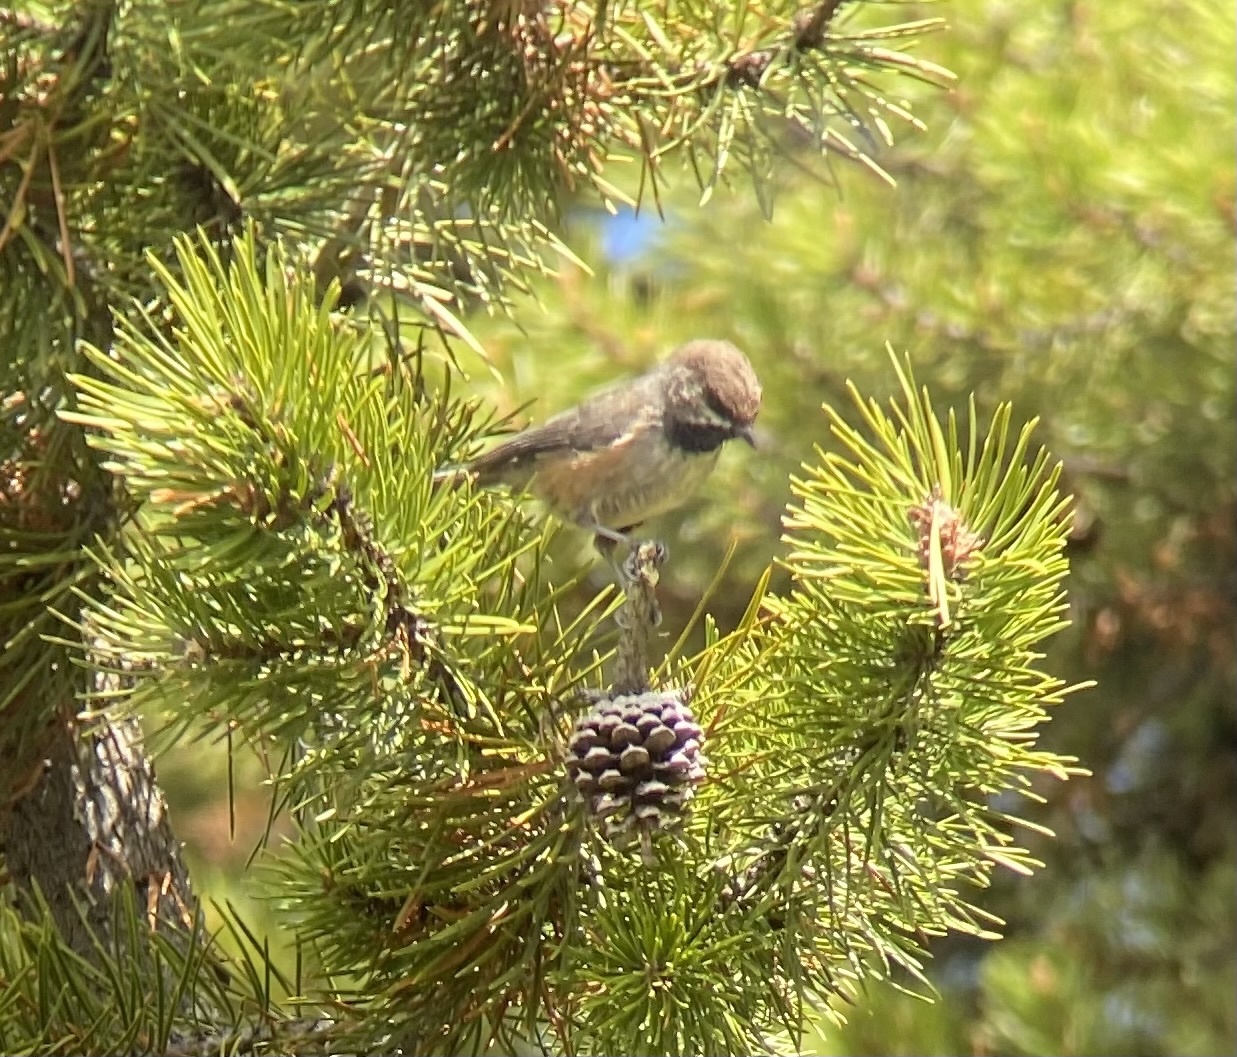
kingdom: Animalia
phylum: Chordata
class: Aves
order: Passeriformes
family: Paridae
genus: Poecile
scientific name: Poecile hudsonicus
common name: Boreal chickadee
